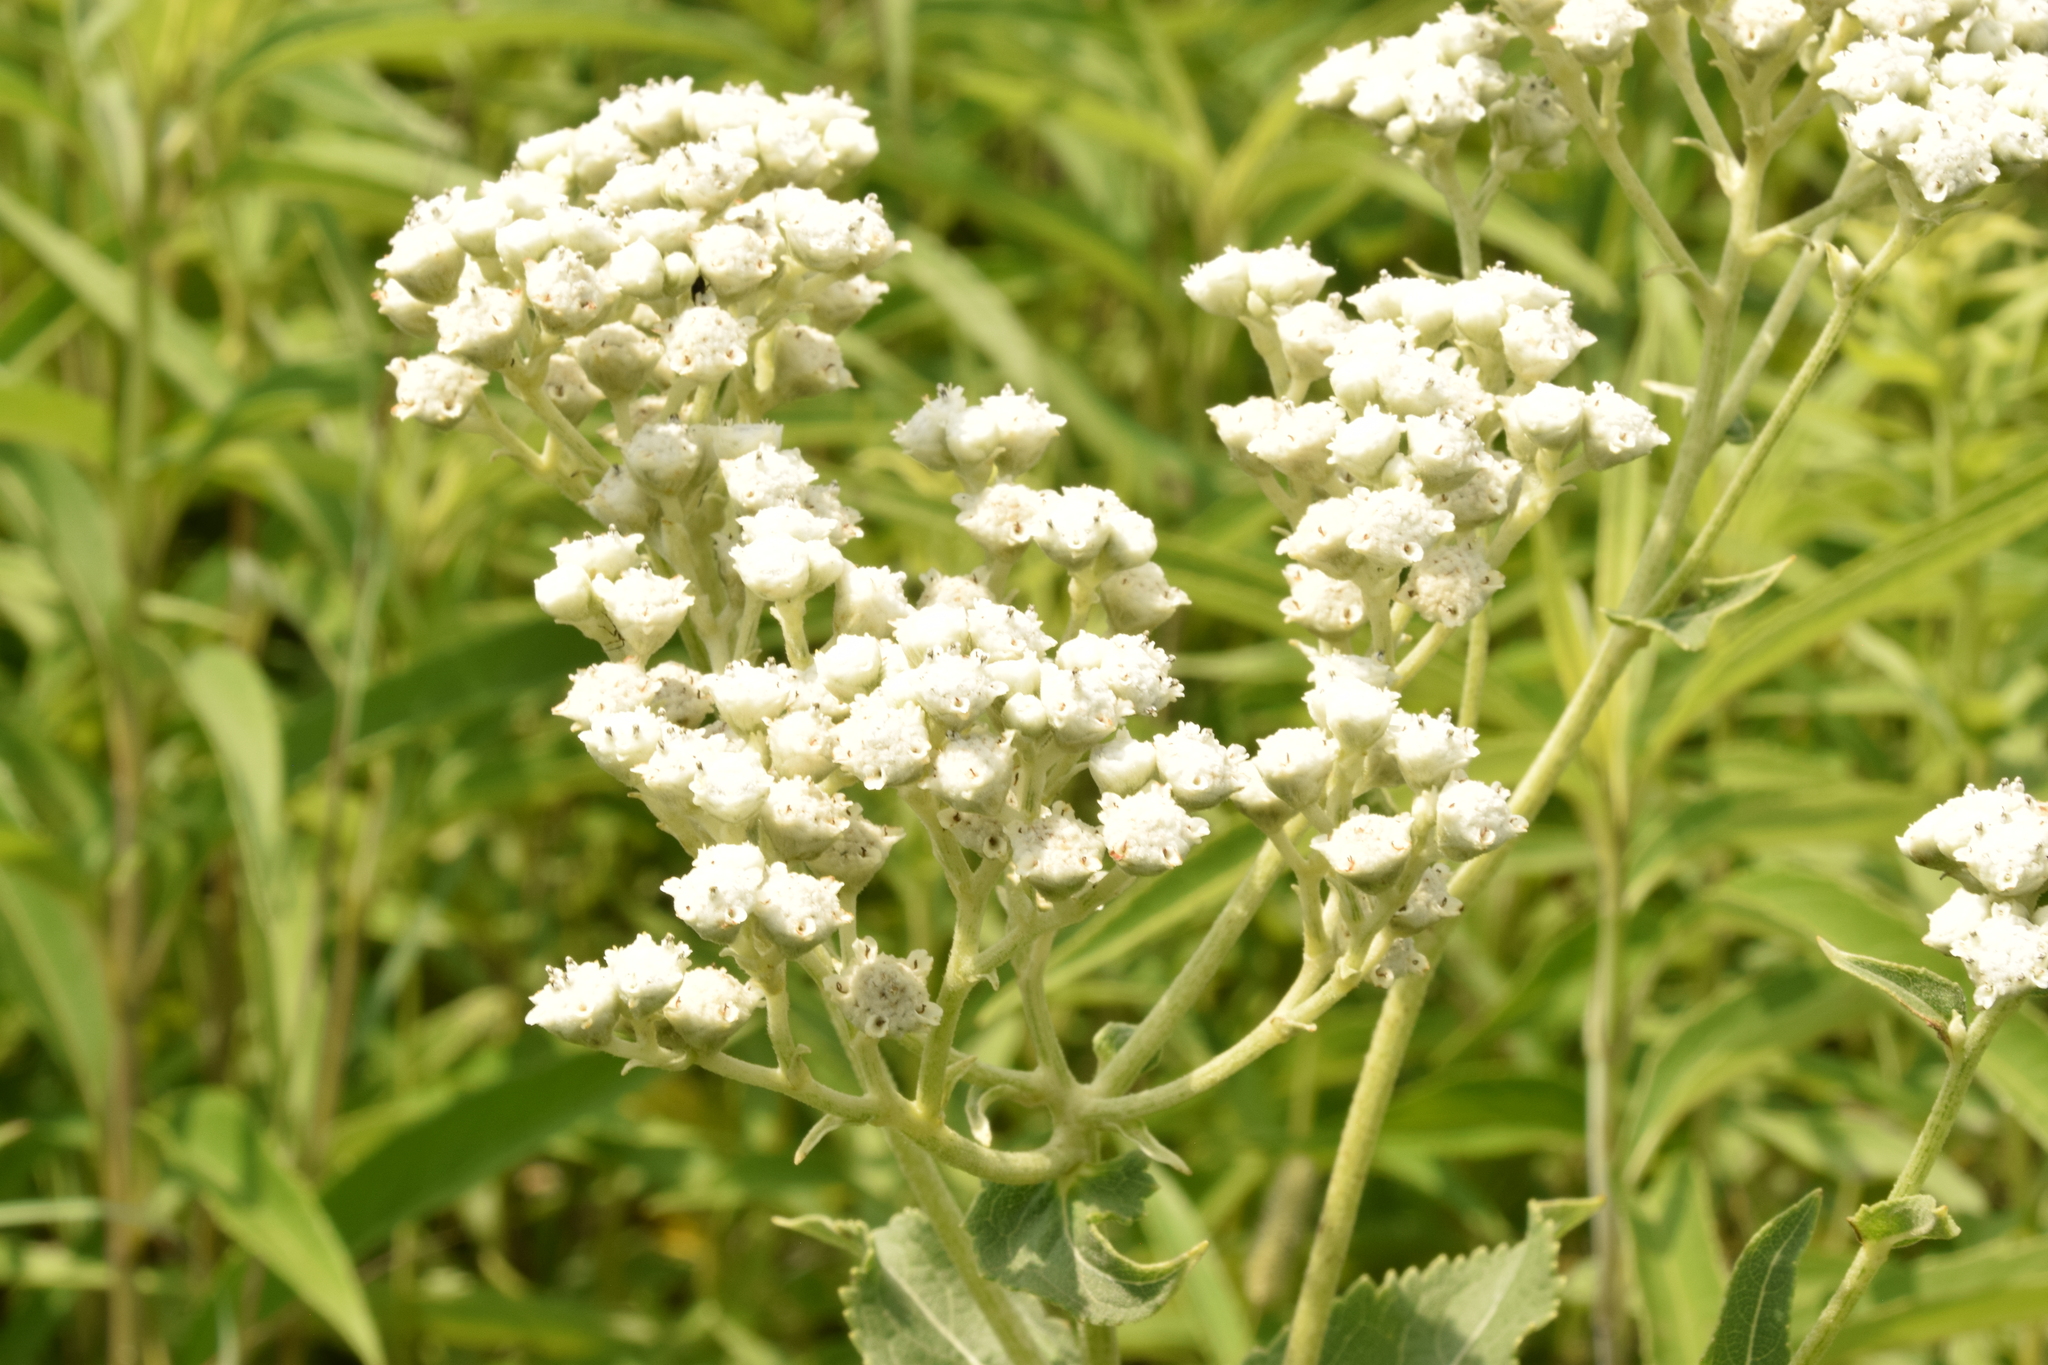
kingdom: Plantae
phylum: Tracheophyta
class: Magnoliopsida
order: Asterales
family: Asteraceae
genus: Parthenium
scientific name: Parthenium integrifolium
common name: American feverfew
